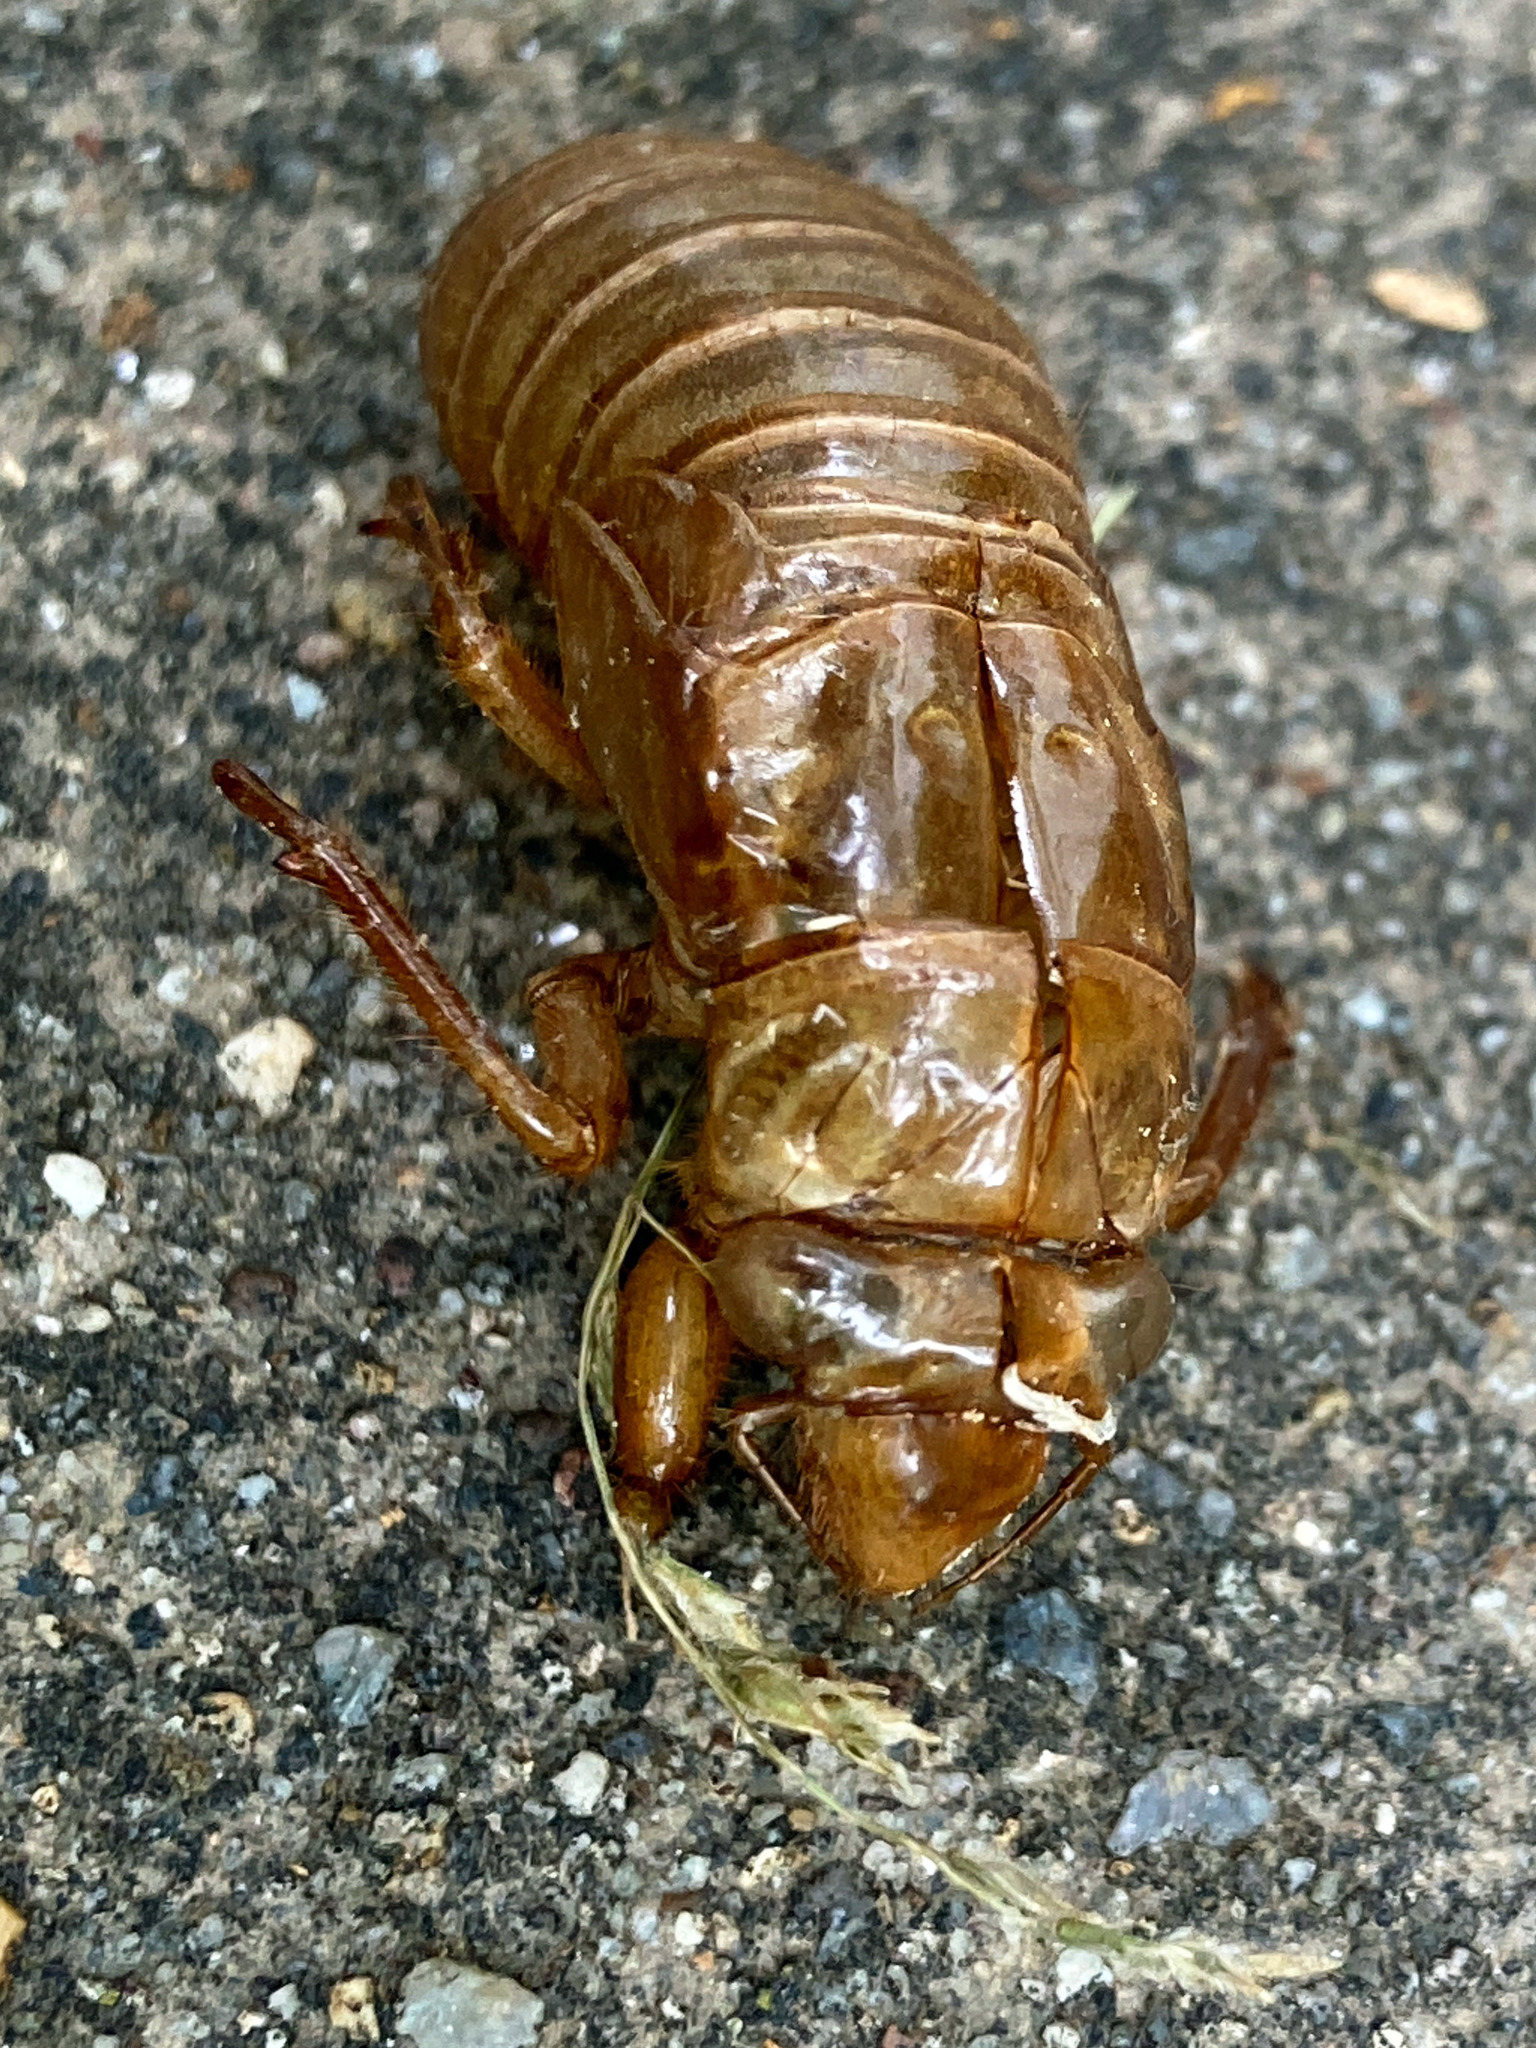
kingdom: Animalia
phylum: Arthropoda
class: Insecta
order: Hemiptera
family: Cicadidae
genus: Magicicada
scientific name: Magicicada
